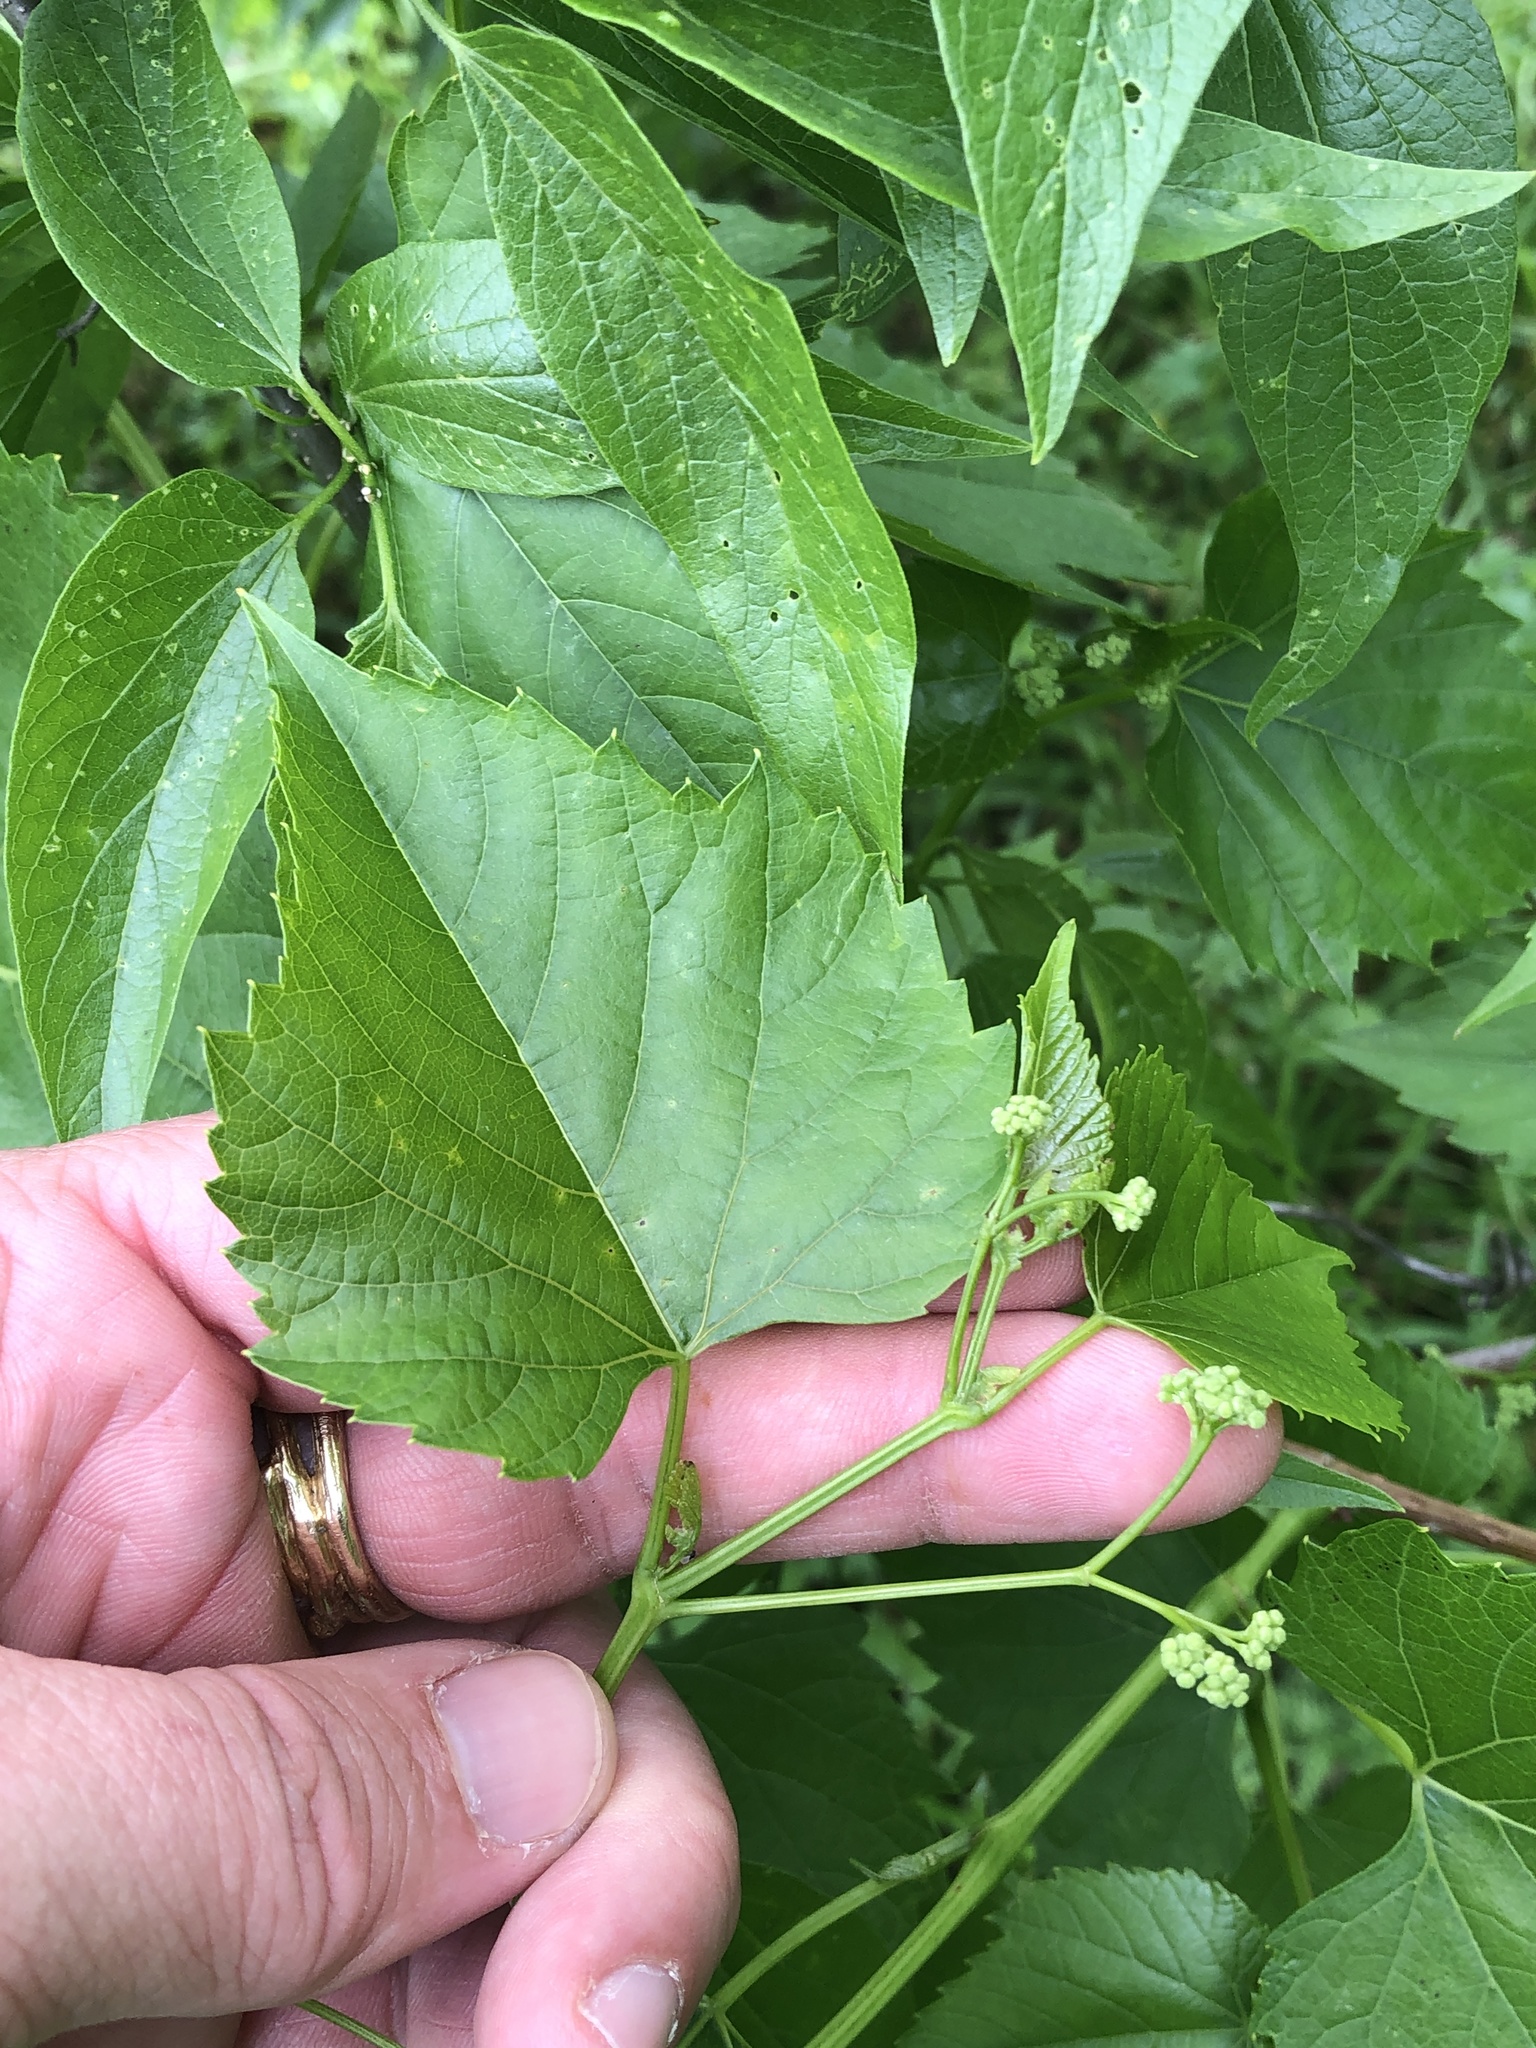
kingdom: Plantae
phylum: Tracheophyta
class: Magnoliopsida
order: Vitales
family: Vitaceae
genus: Ampelopsis
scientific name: Ampelopsis cordata
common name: Heart-leaf ampelopsis
